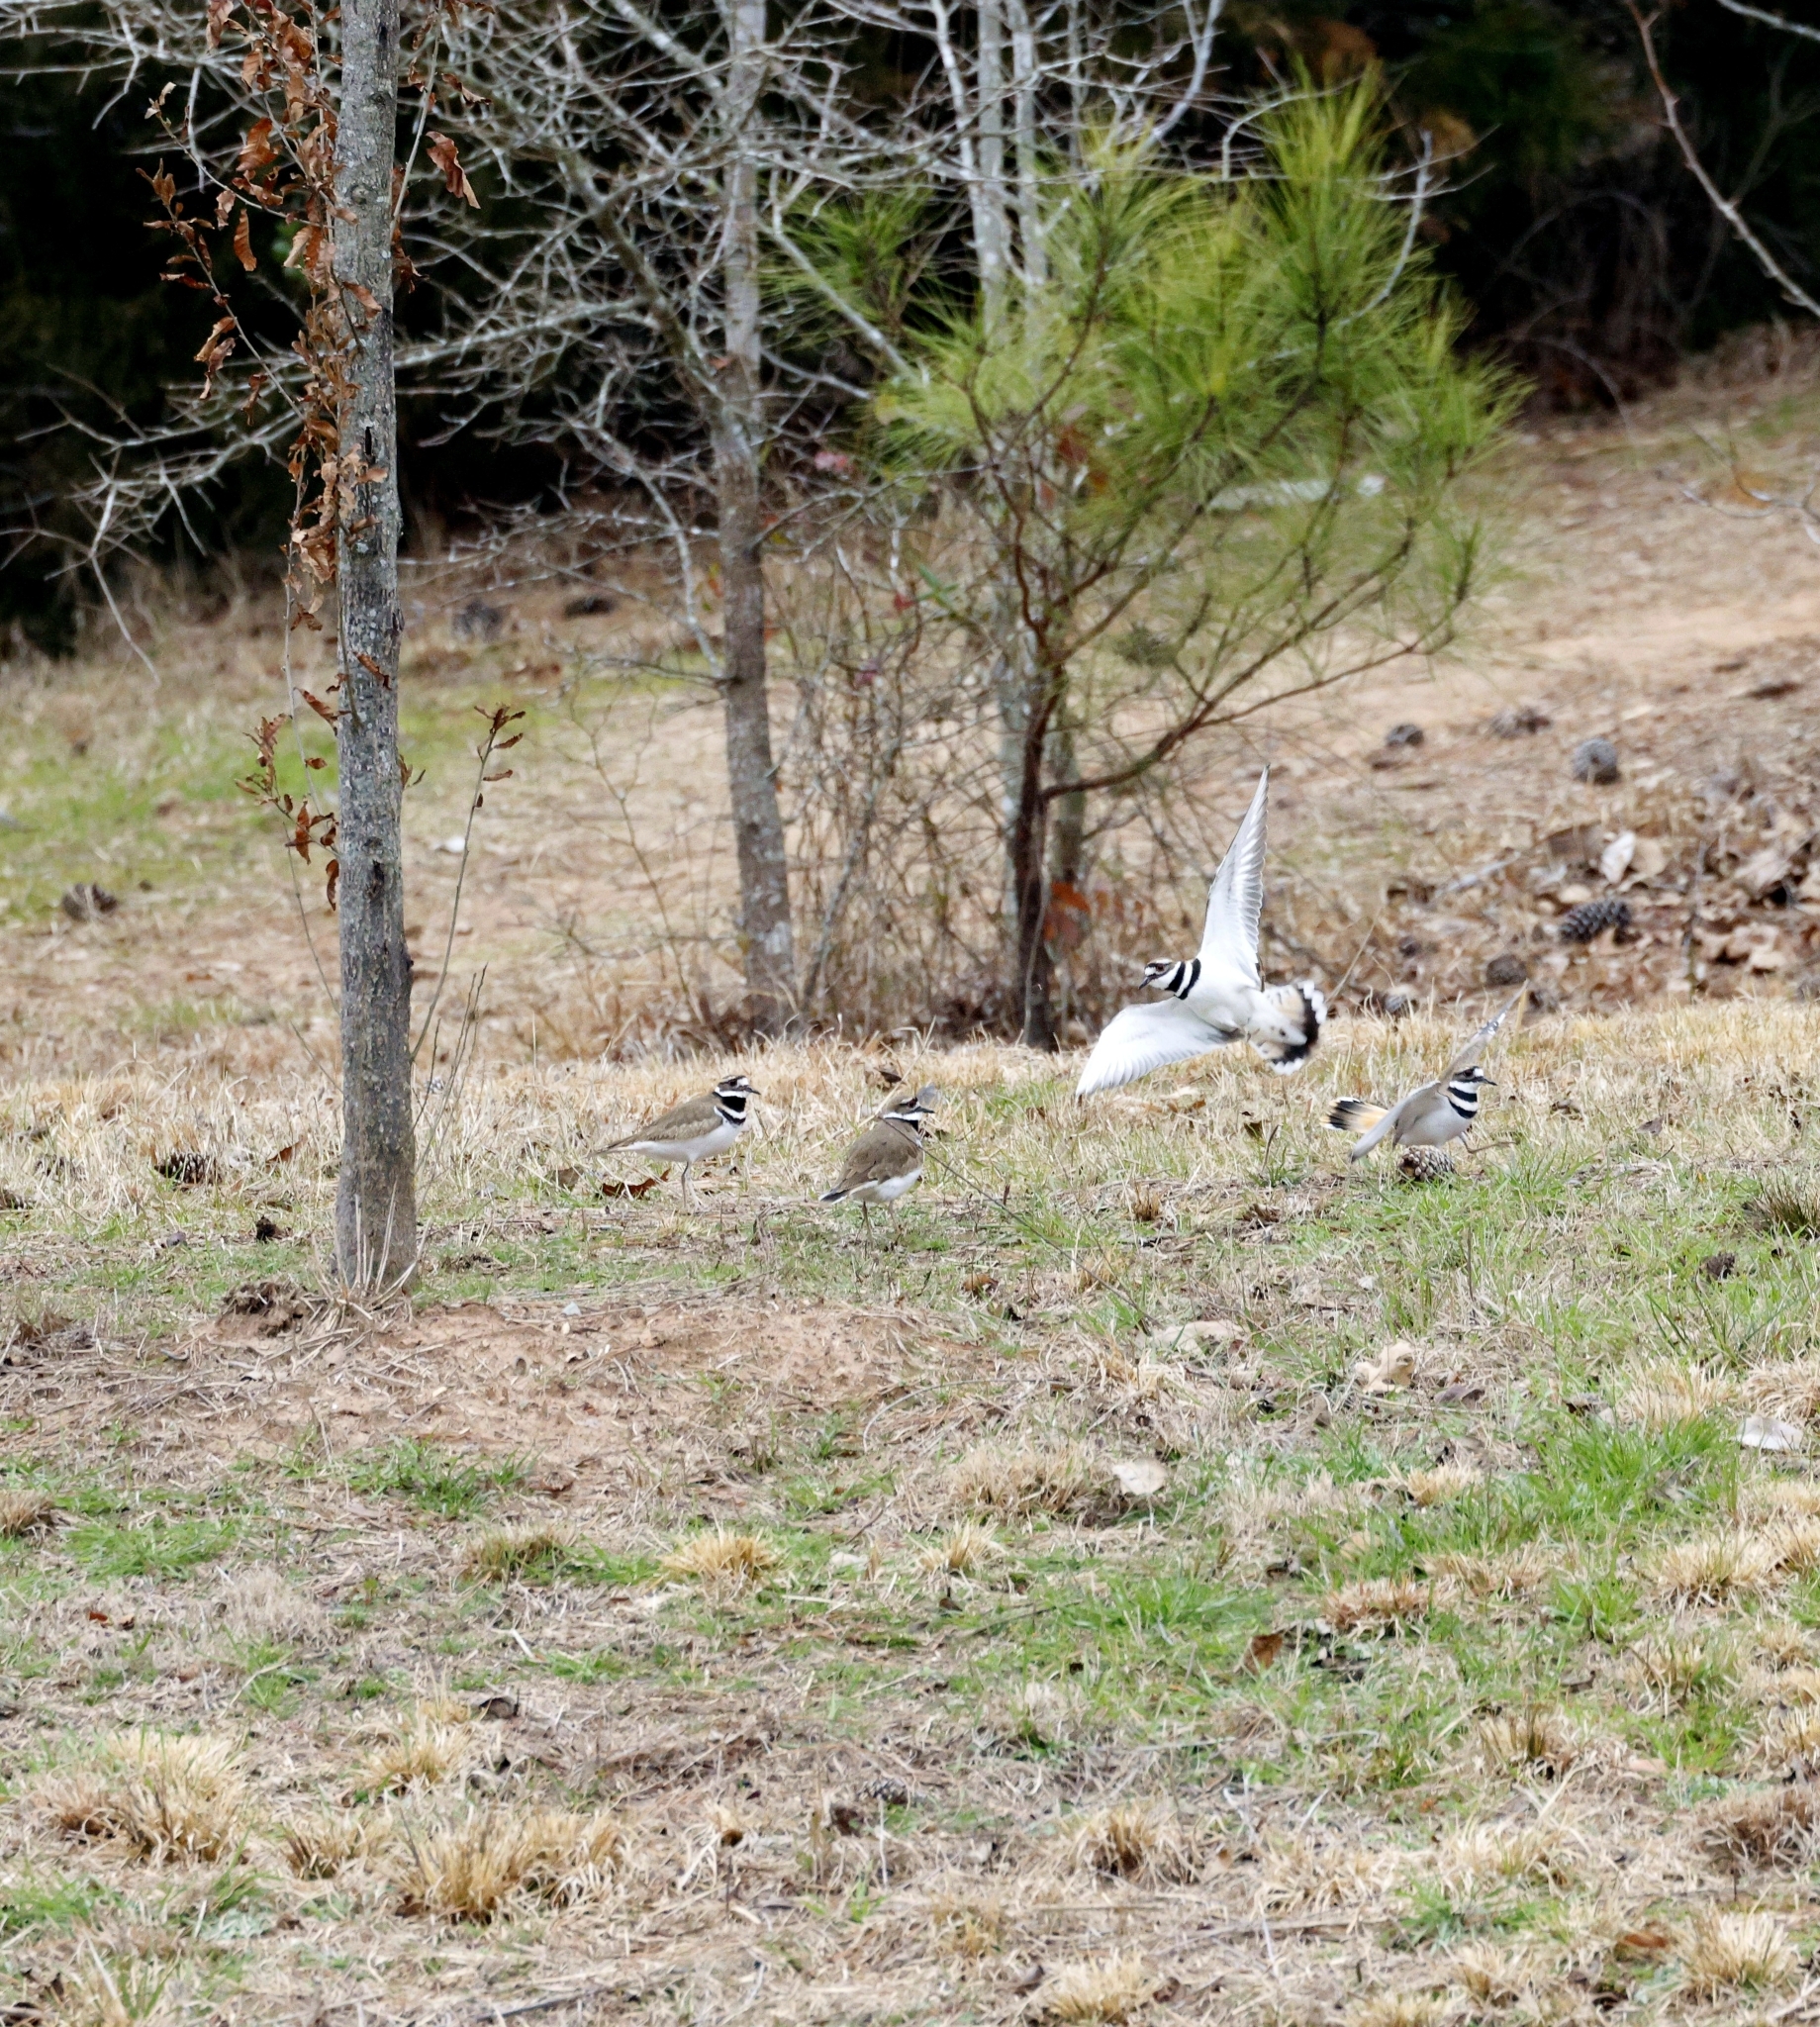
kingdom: Animalia
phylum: Chordata
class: Aves
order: Charadriiformes
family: Charadriidae
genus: Charadrius
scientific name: Charadrius vociferus
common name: Killdeer
